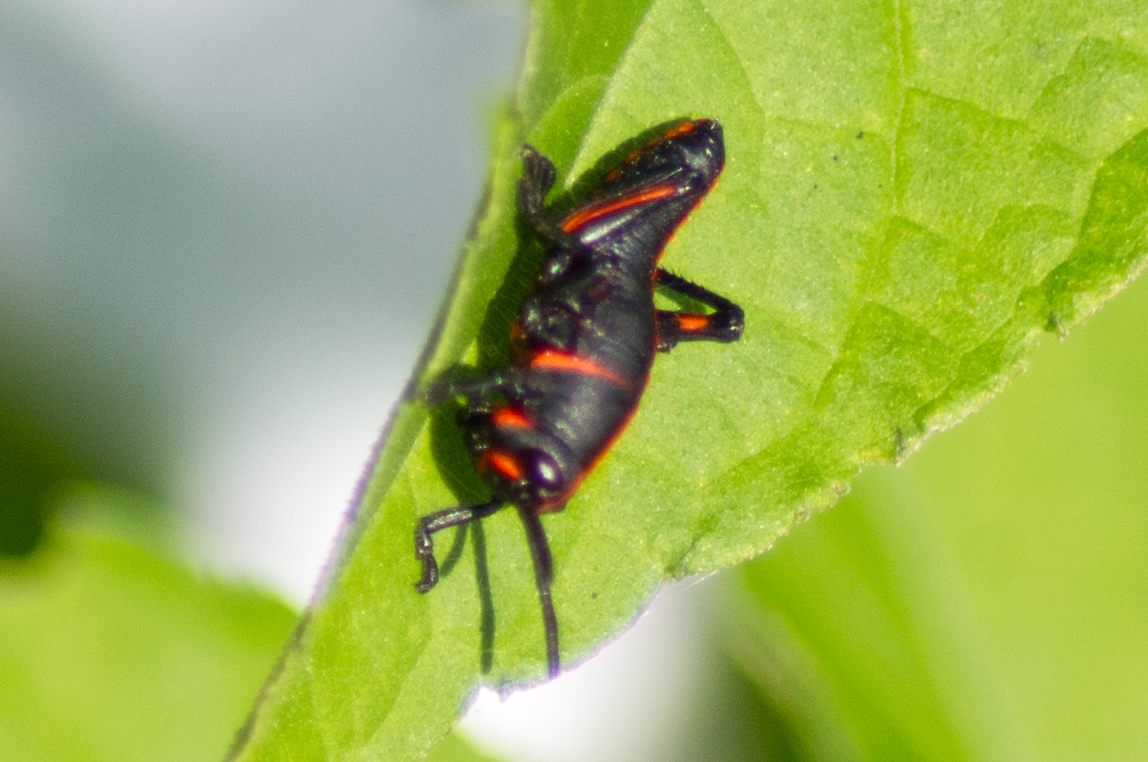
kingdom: Animalia
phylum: Arthropoda
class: Insecta
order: Orthoptera
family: Romaleidae
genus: Romalea
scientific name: Romalea microptera
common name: Eastern lubber grasshopper
